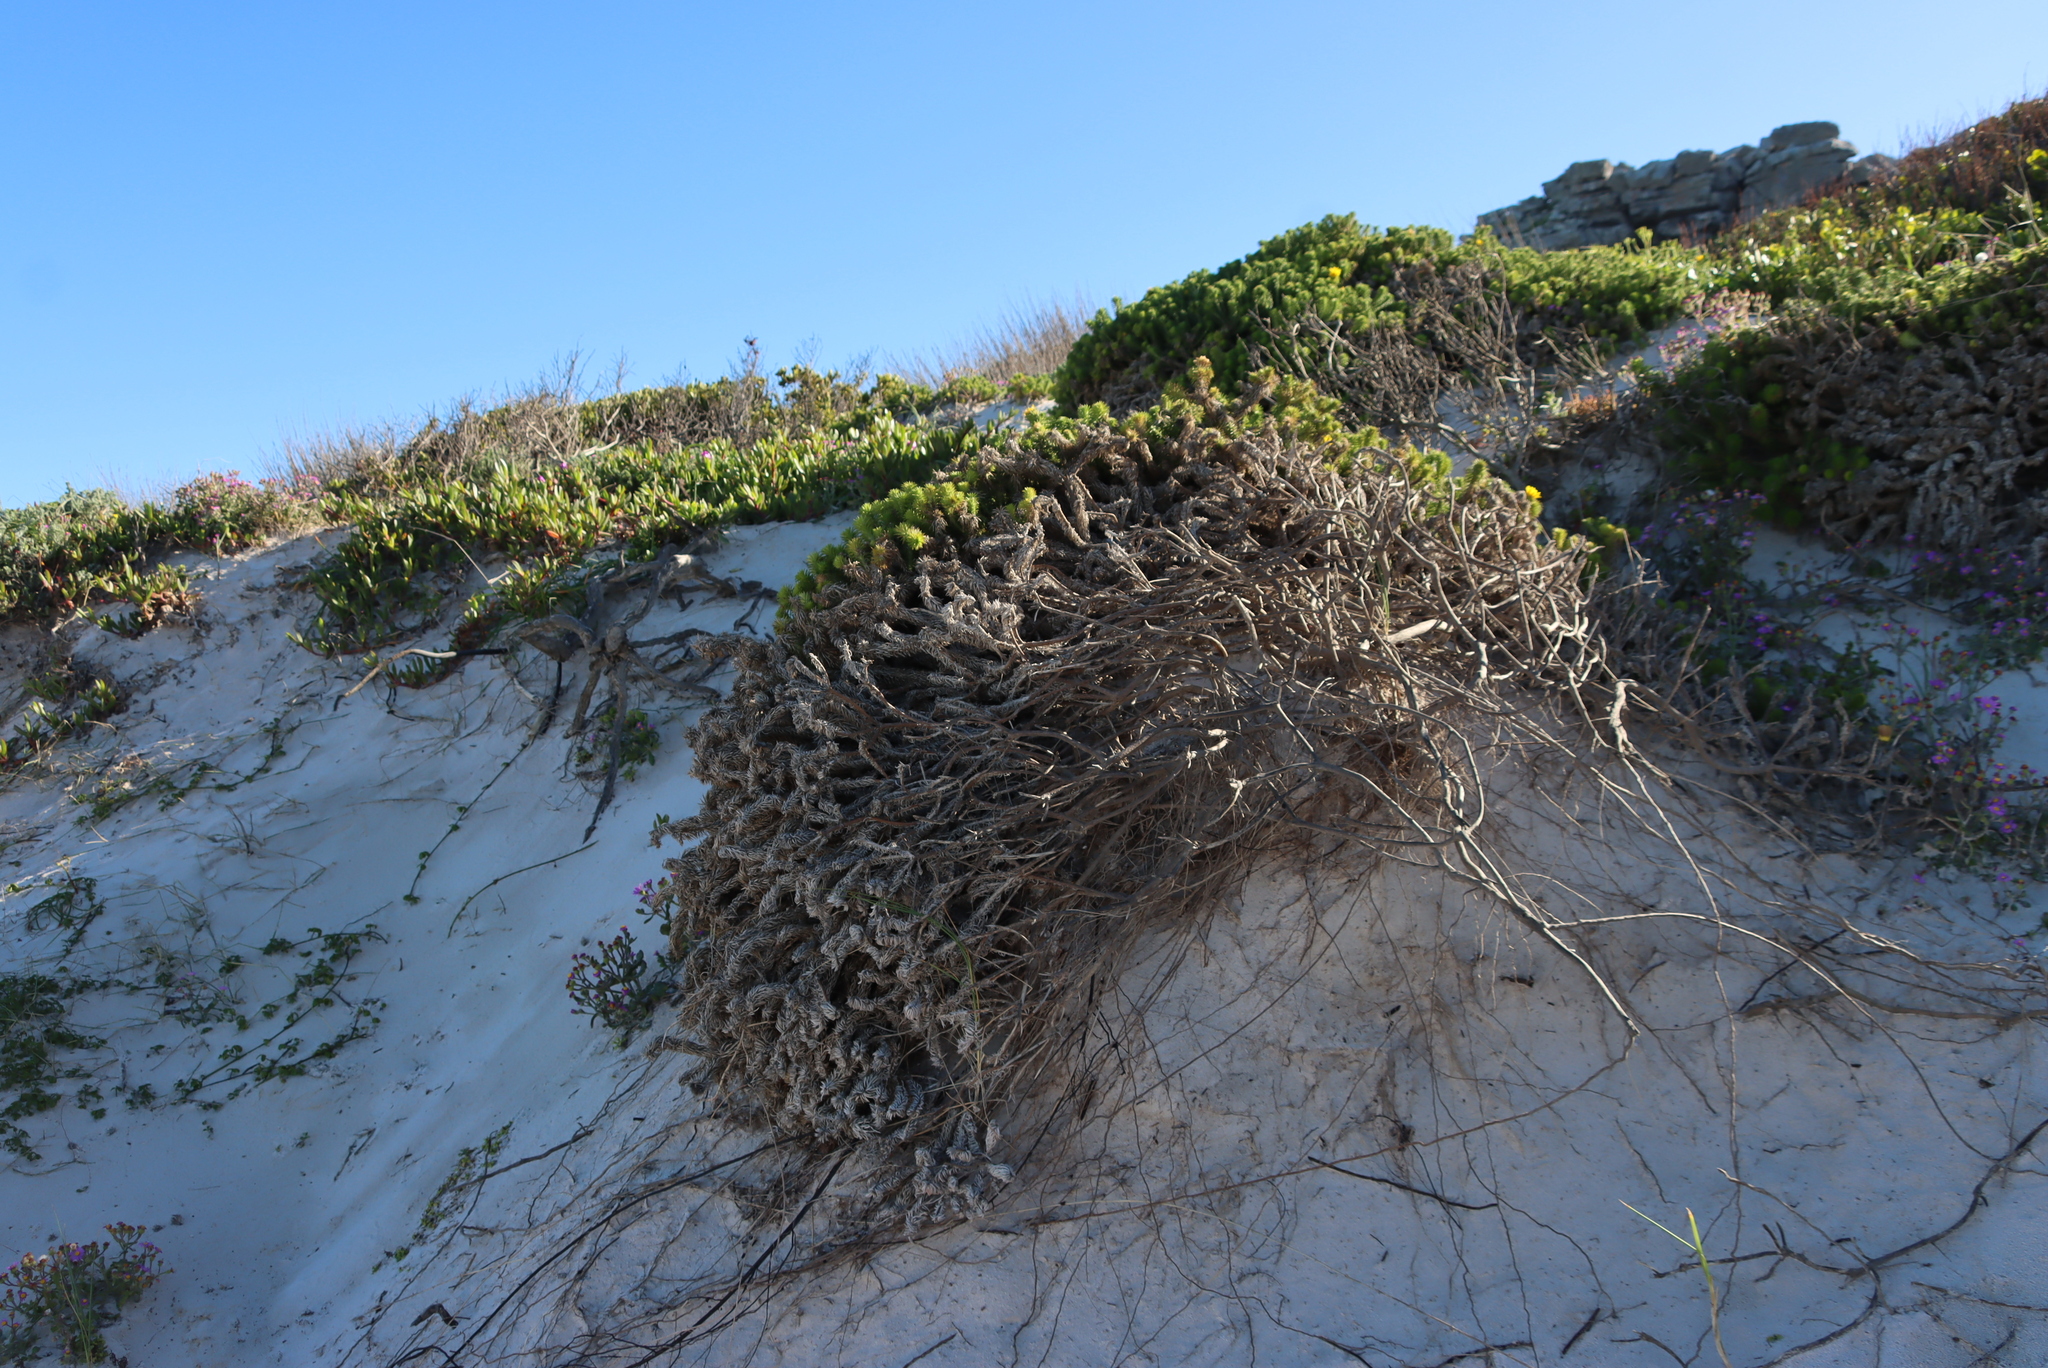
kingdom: Plantae
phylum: Tracheophyta
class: Magnoliopsida
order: Asterales
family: Asteraceae
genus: Cullumia
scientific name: Cullumia squarrosa
